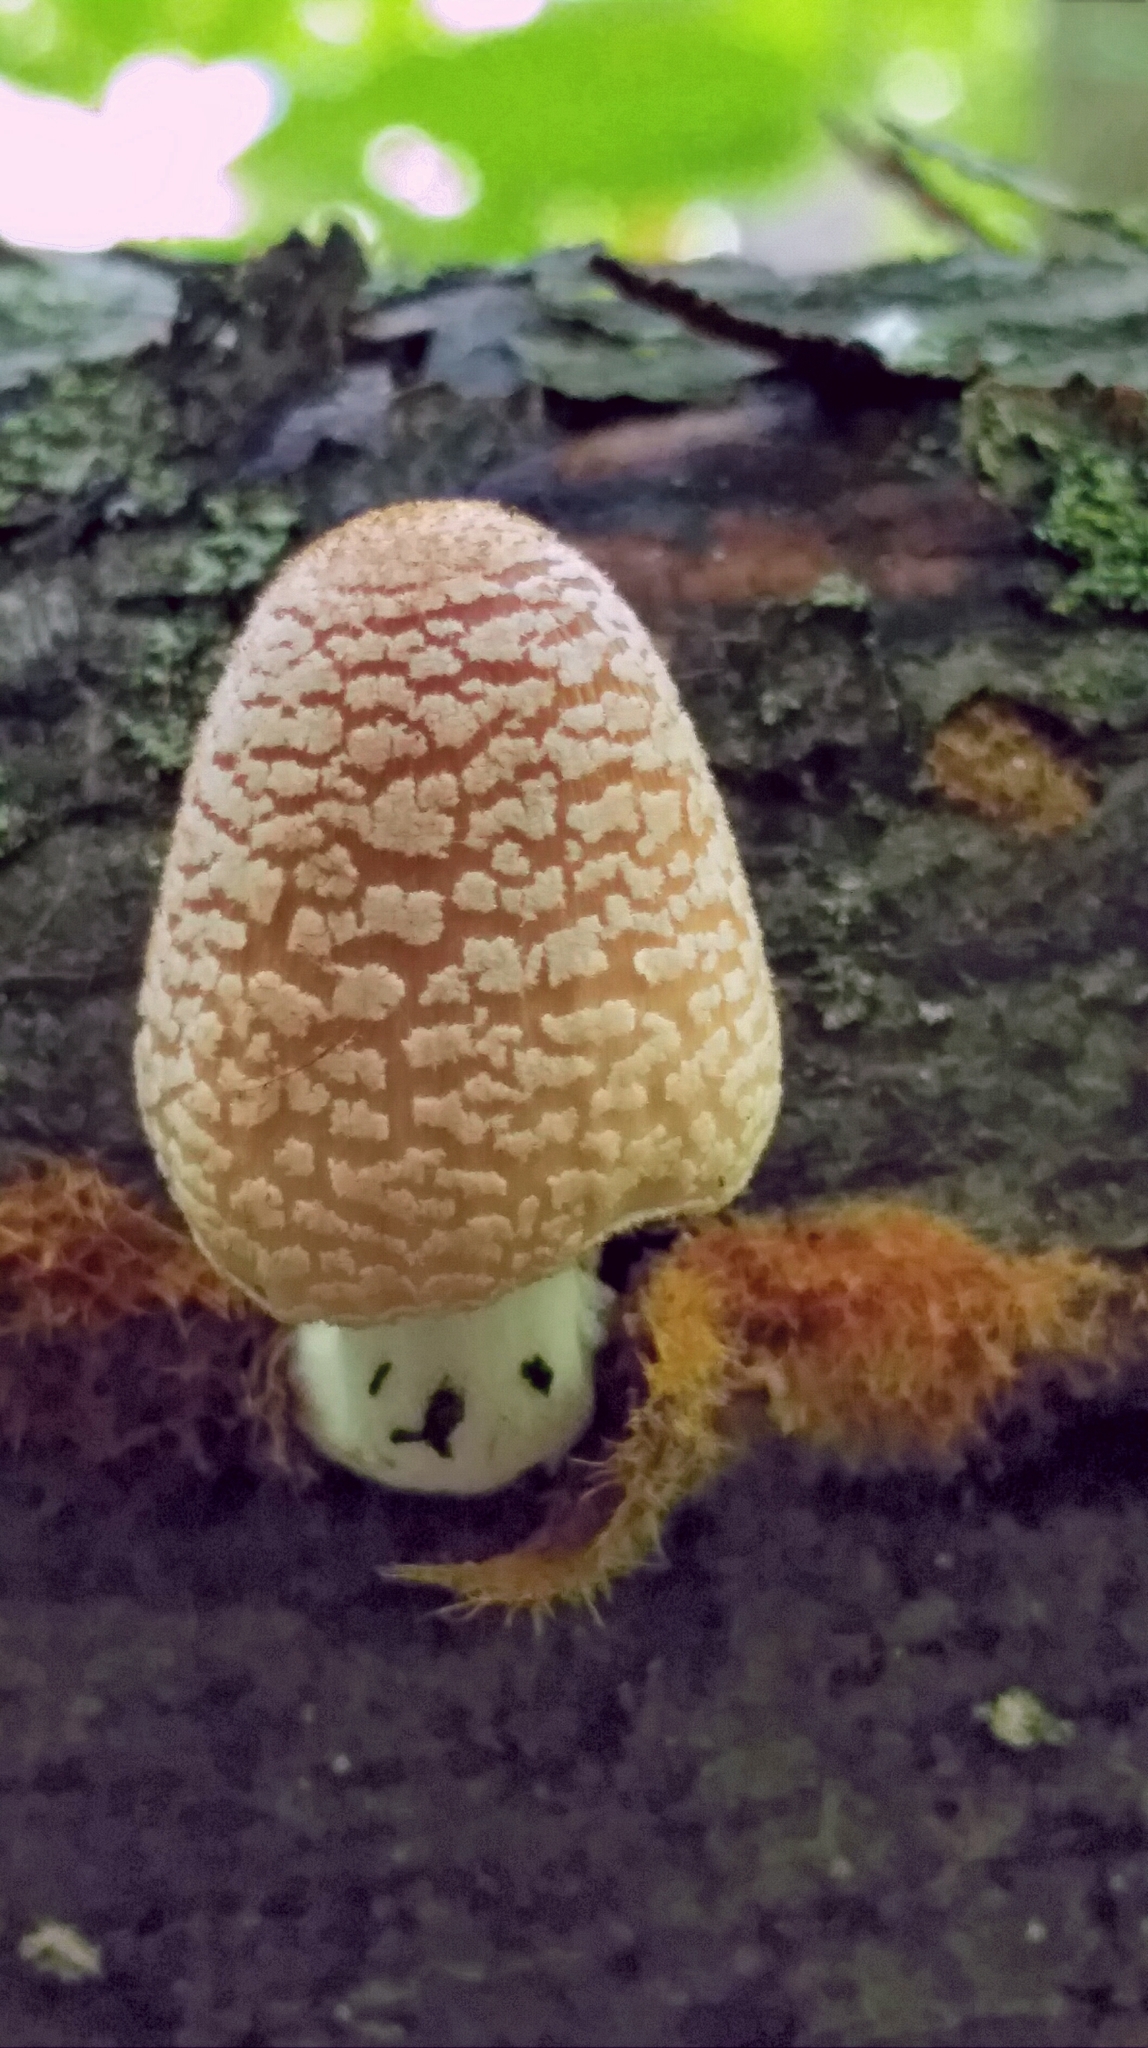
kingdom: Fungi
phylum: Basidiomycota
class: Agaricomycetes
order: Agaricales
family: Psathyrellaceae
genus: Coprinellus
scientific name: Coprinellus domesticus
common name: Firerug inkcap
